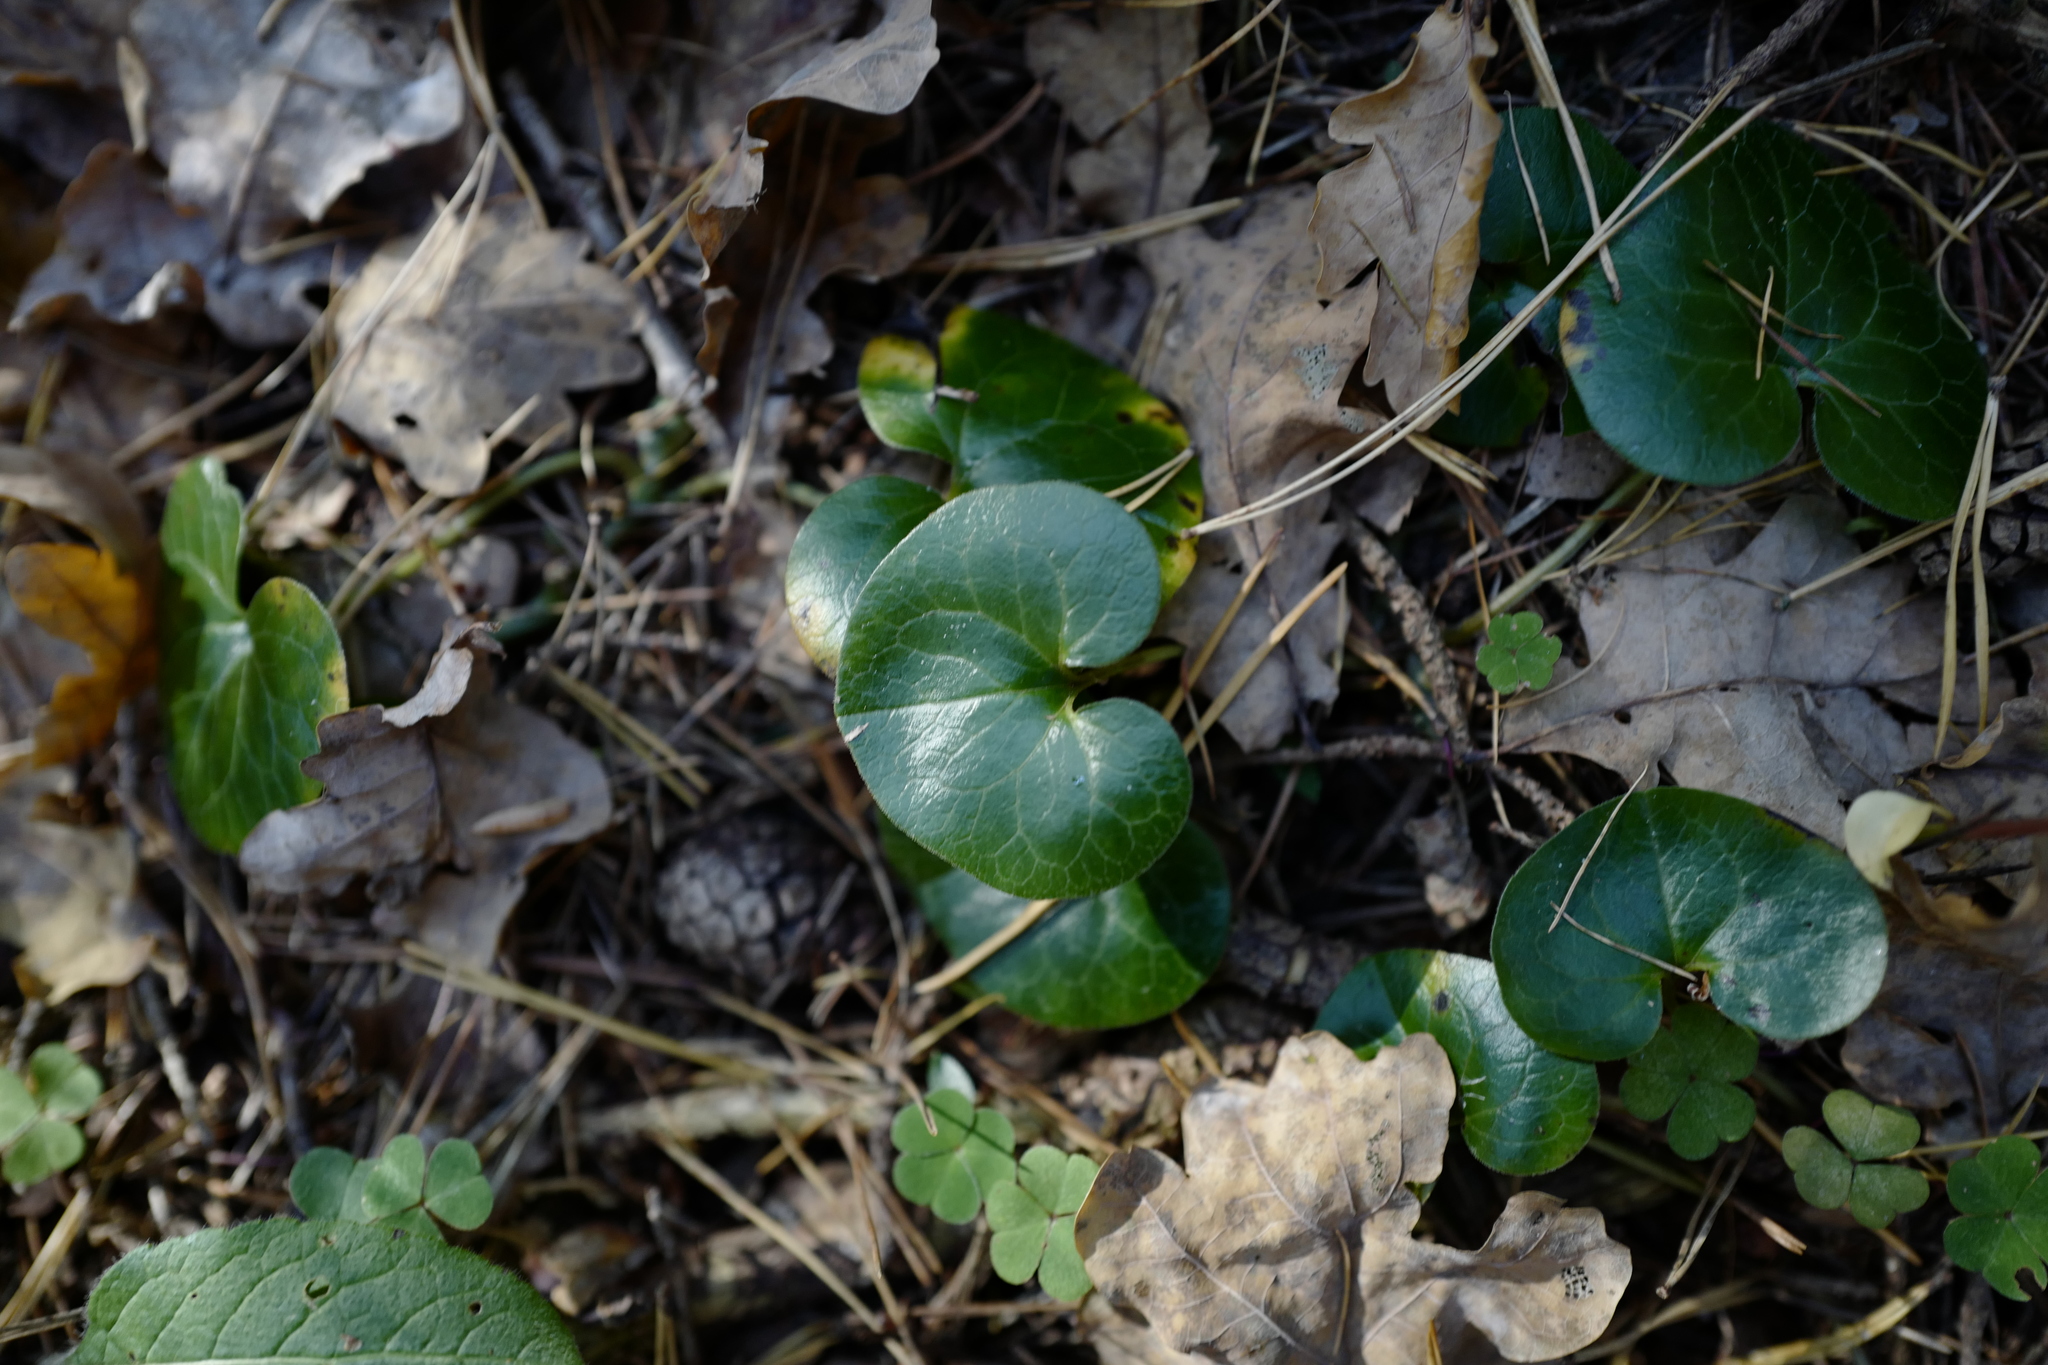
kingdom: Plantae
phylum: Tracheophyta
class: Magnoliopsida
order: Piperales
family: Aristolochiaceae
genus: Asarum
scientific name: Asarum europaeum
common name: Asarabacca
